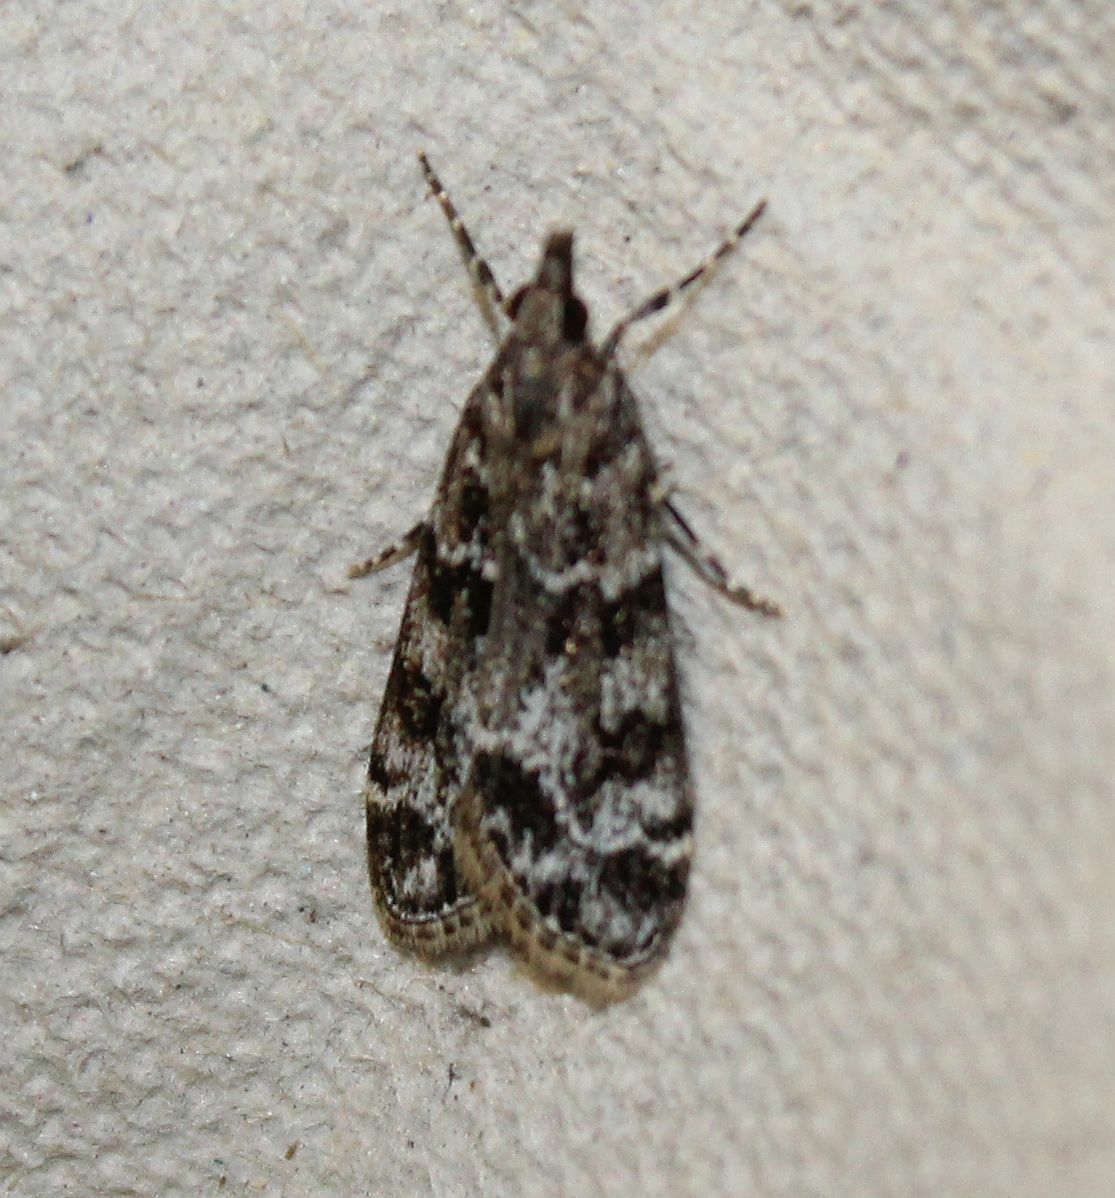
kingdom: Animalia
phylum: Arthropoda
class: Insecta
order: Lepidoptera
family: Crambidae
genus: Eudonia
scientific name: Eudonia mercurella
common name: Small grey
